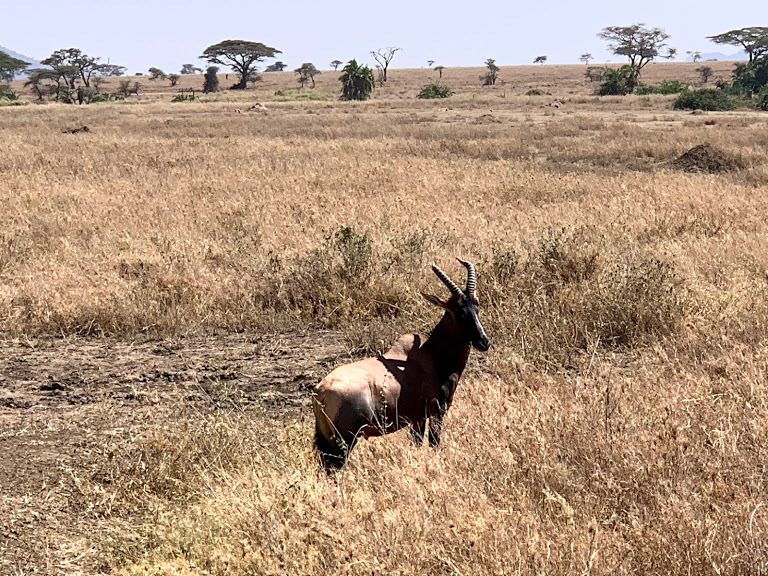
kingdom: Animalia
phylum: Chordata
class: Mammalia
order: Artiodactyla
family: Bovidae
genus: Damaliscus
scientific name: Damaliscus korrigum
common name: Topi
